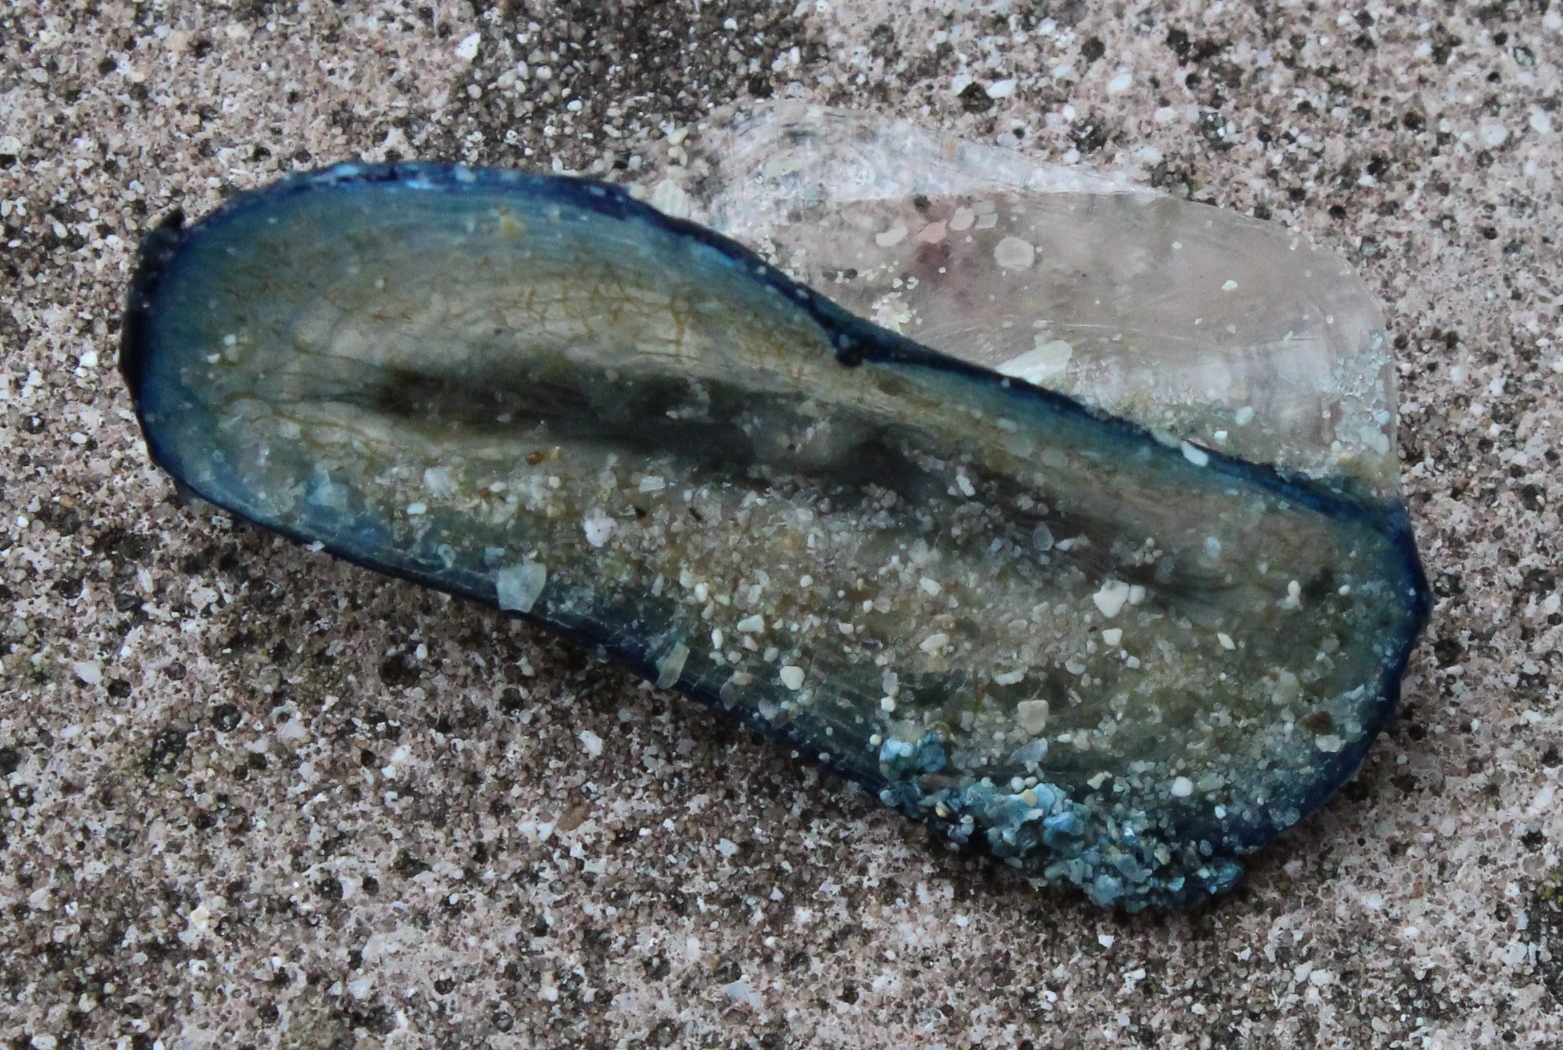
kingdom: Animalia
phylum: Cnidaria
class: Hydrozoa
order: Anthoathecata
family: Porpitidae
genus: Velella
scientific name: Velella velella
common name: By-the-wind-sailor
